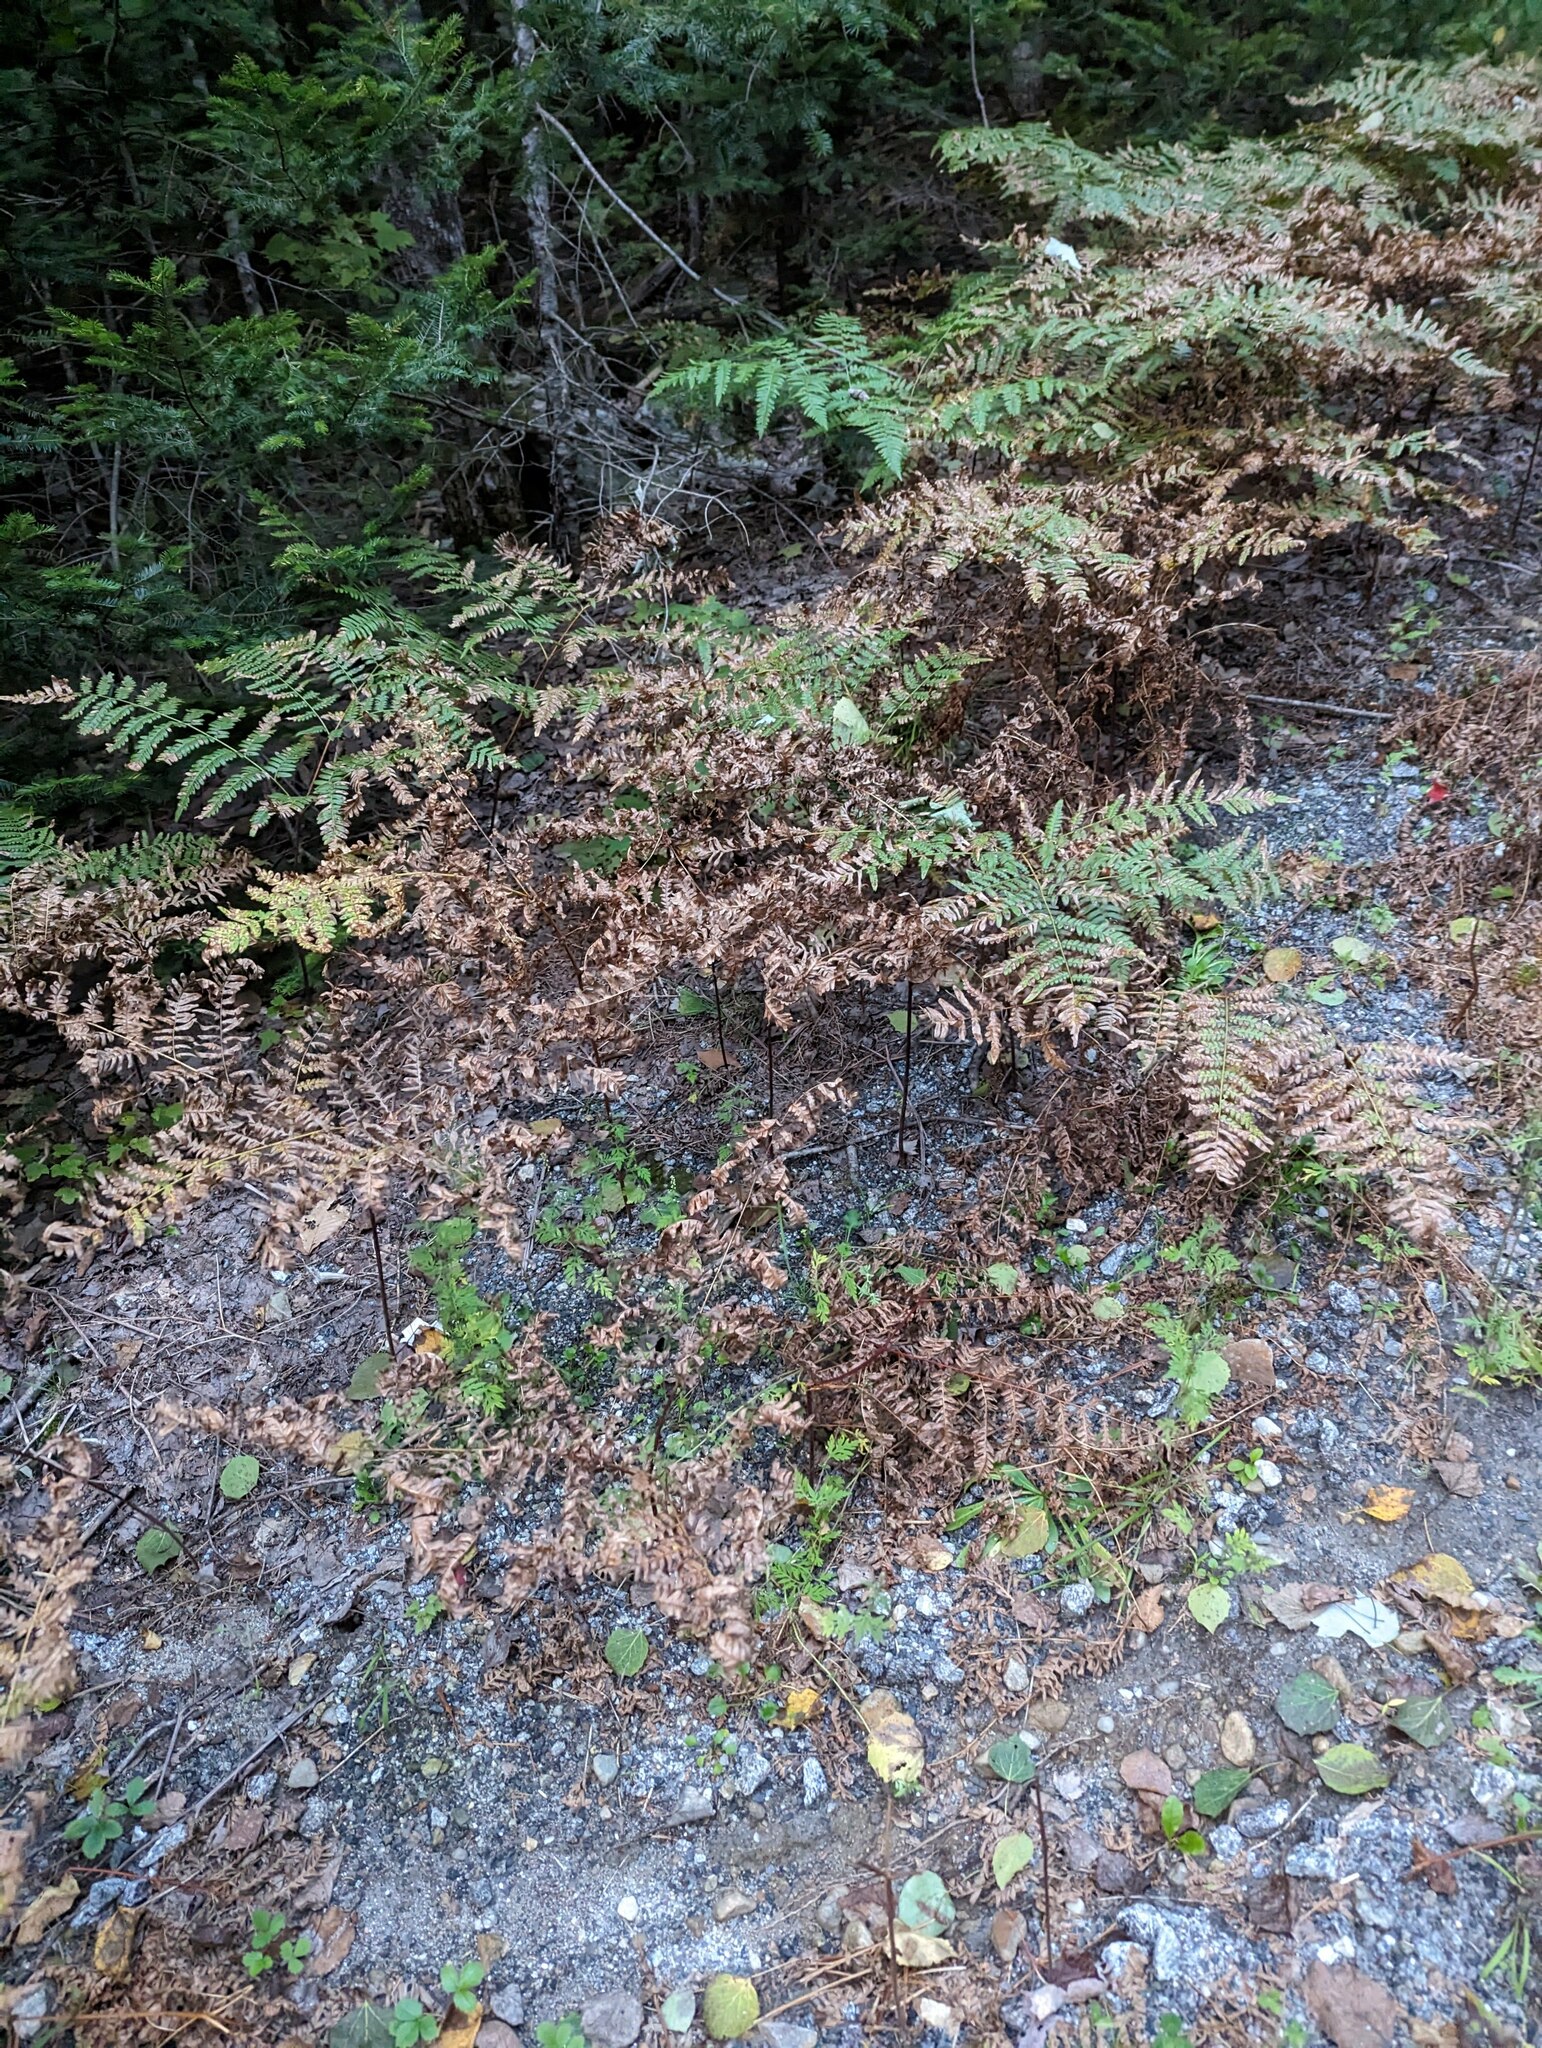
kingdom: Plantae
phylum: Tracheophyta
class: Polypodiopsida
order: Polypodiales
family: Dennstaedtiaceae
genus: Pteridium
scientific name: Pteridium aquilinum
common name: Bracken
